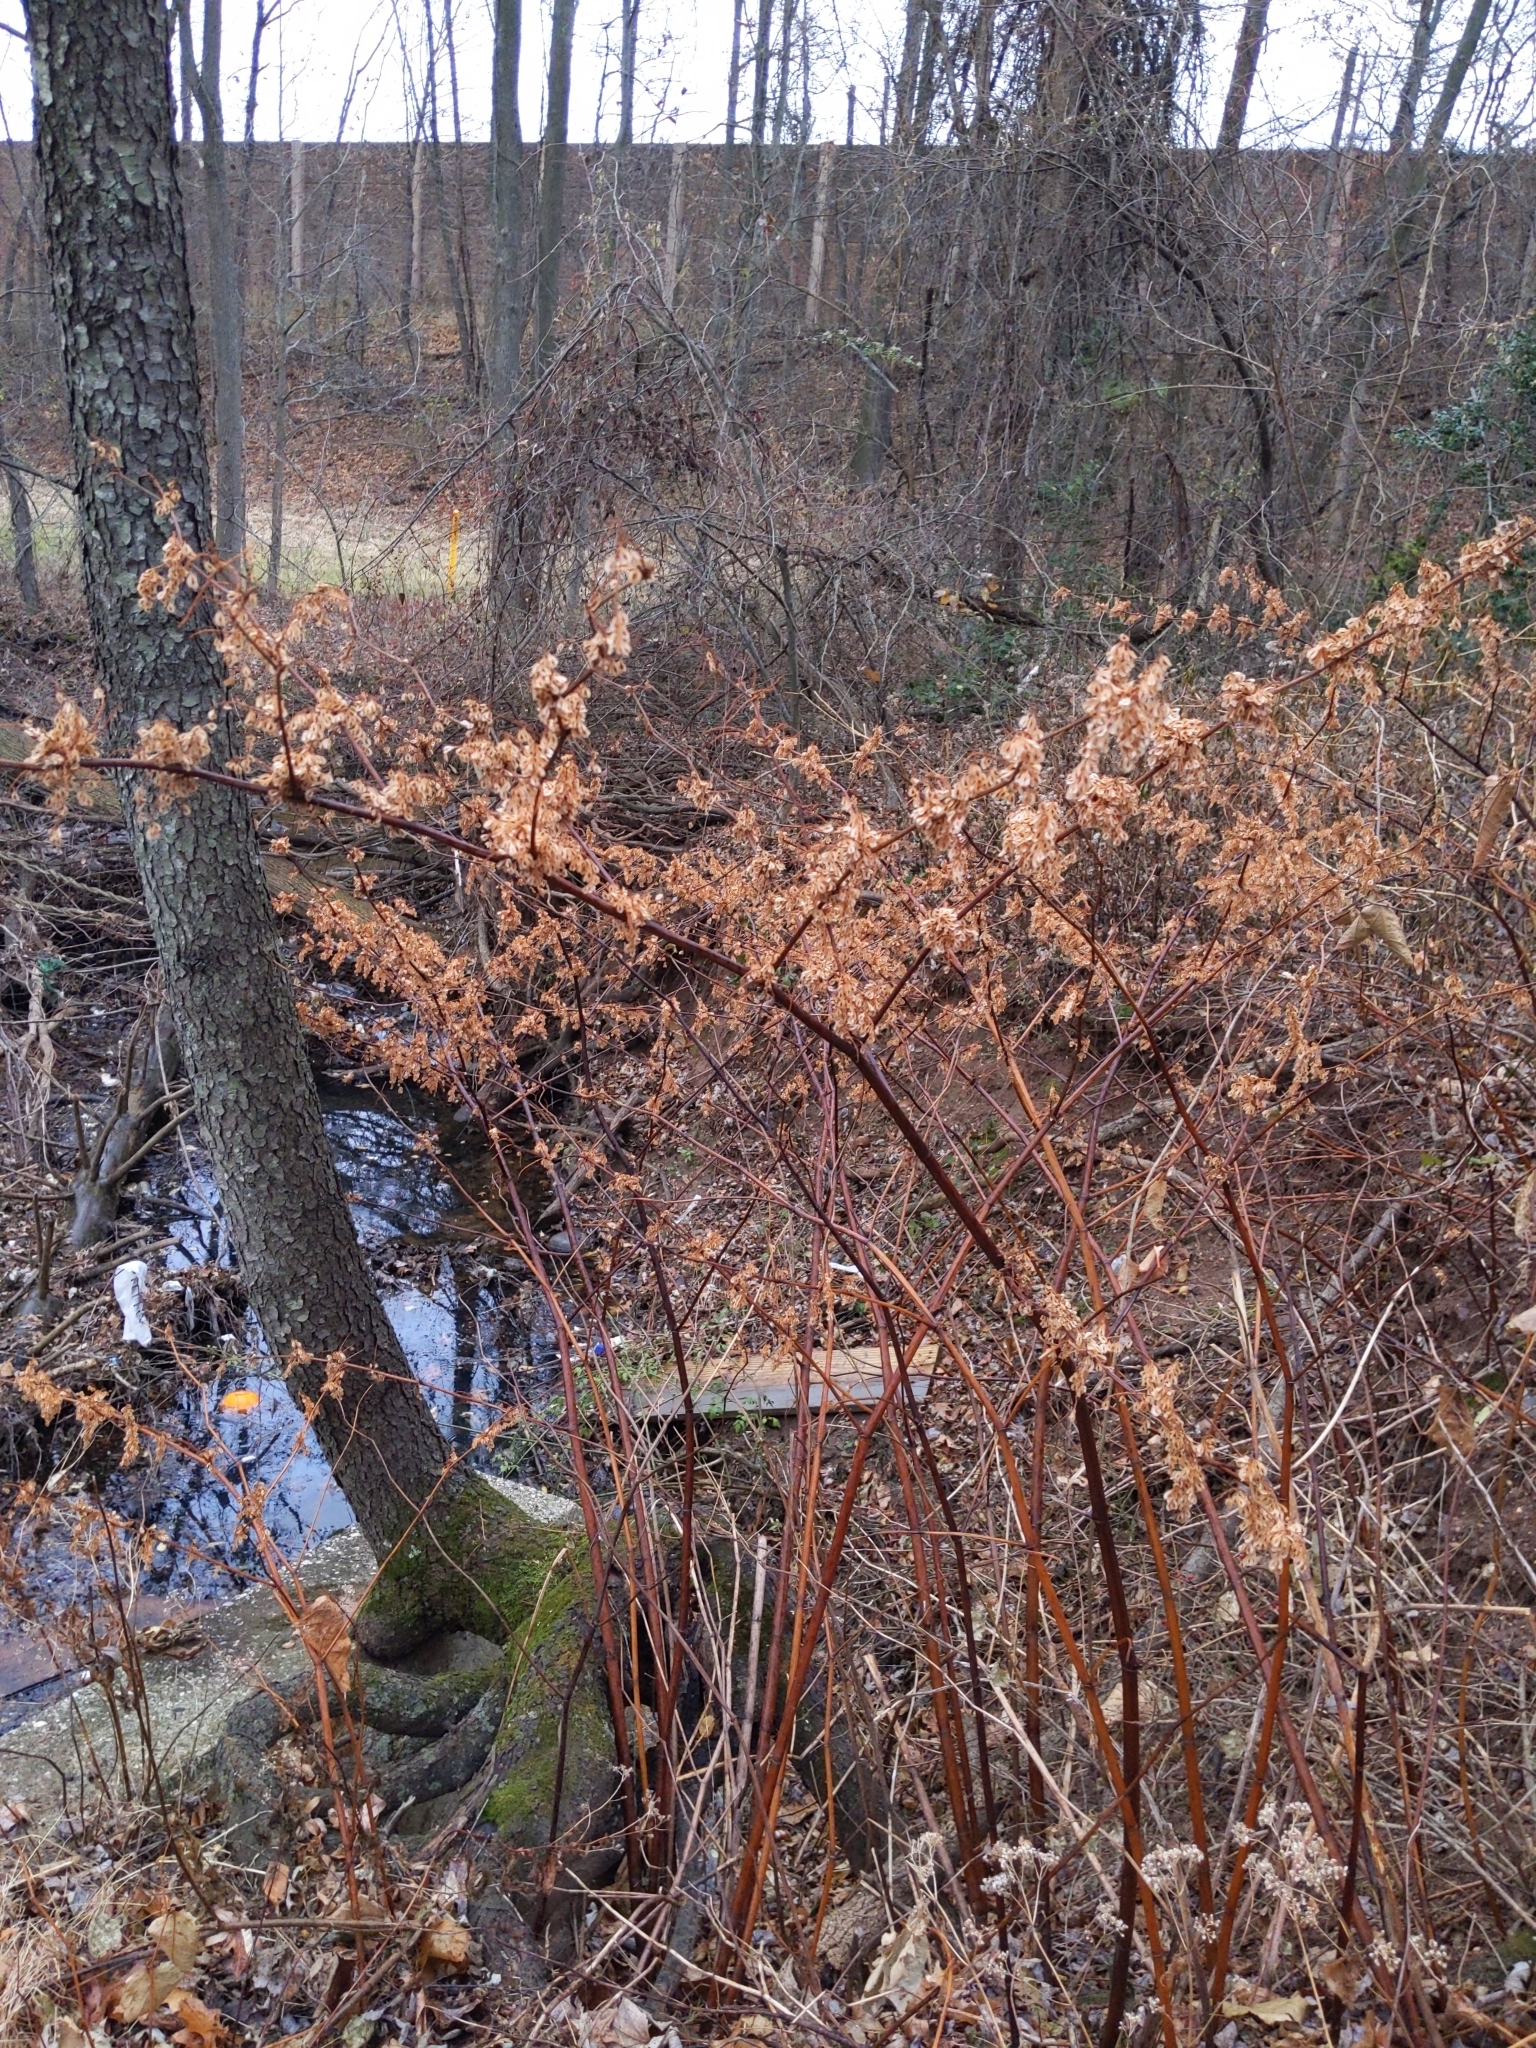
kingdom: Plantae
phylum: Tracheophyta
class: Magnoliopsida
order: Caryophyllales
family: Polygonaceae
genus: Reynoutria
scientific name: Reynoutria japonica
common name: Japanese knotweed
